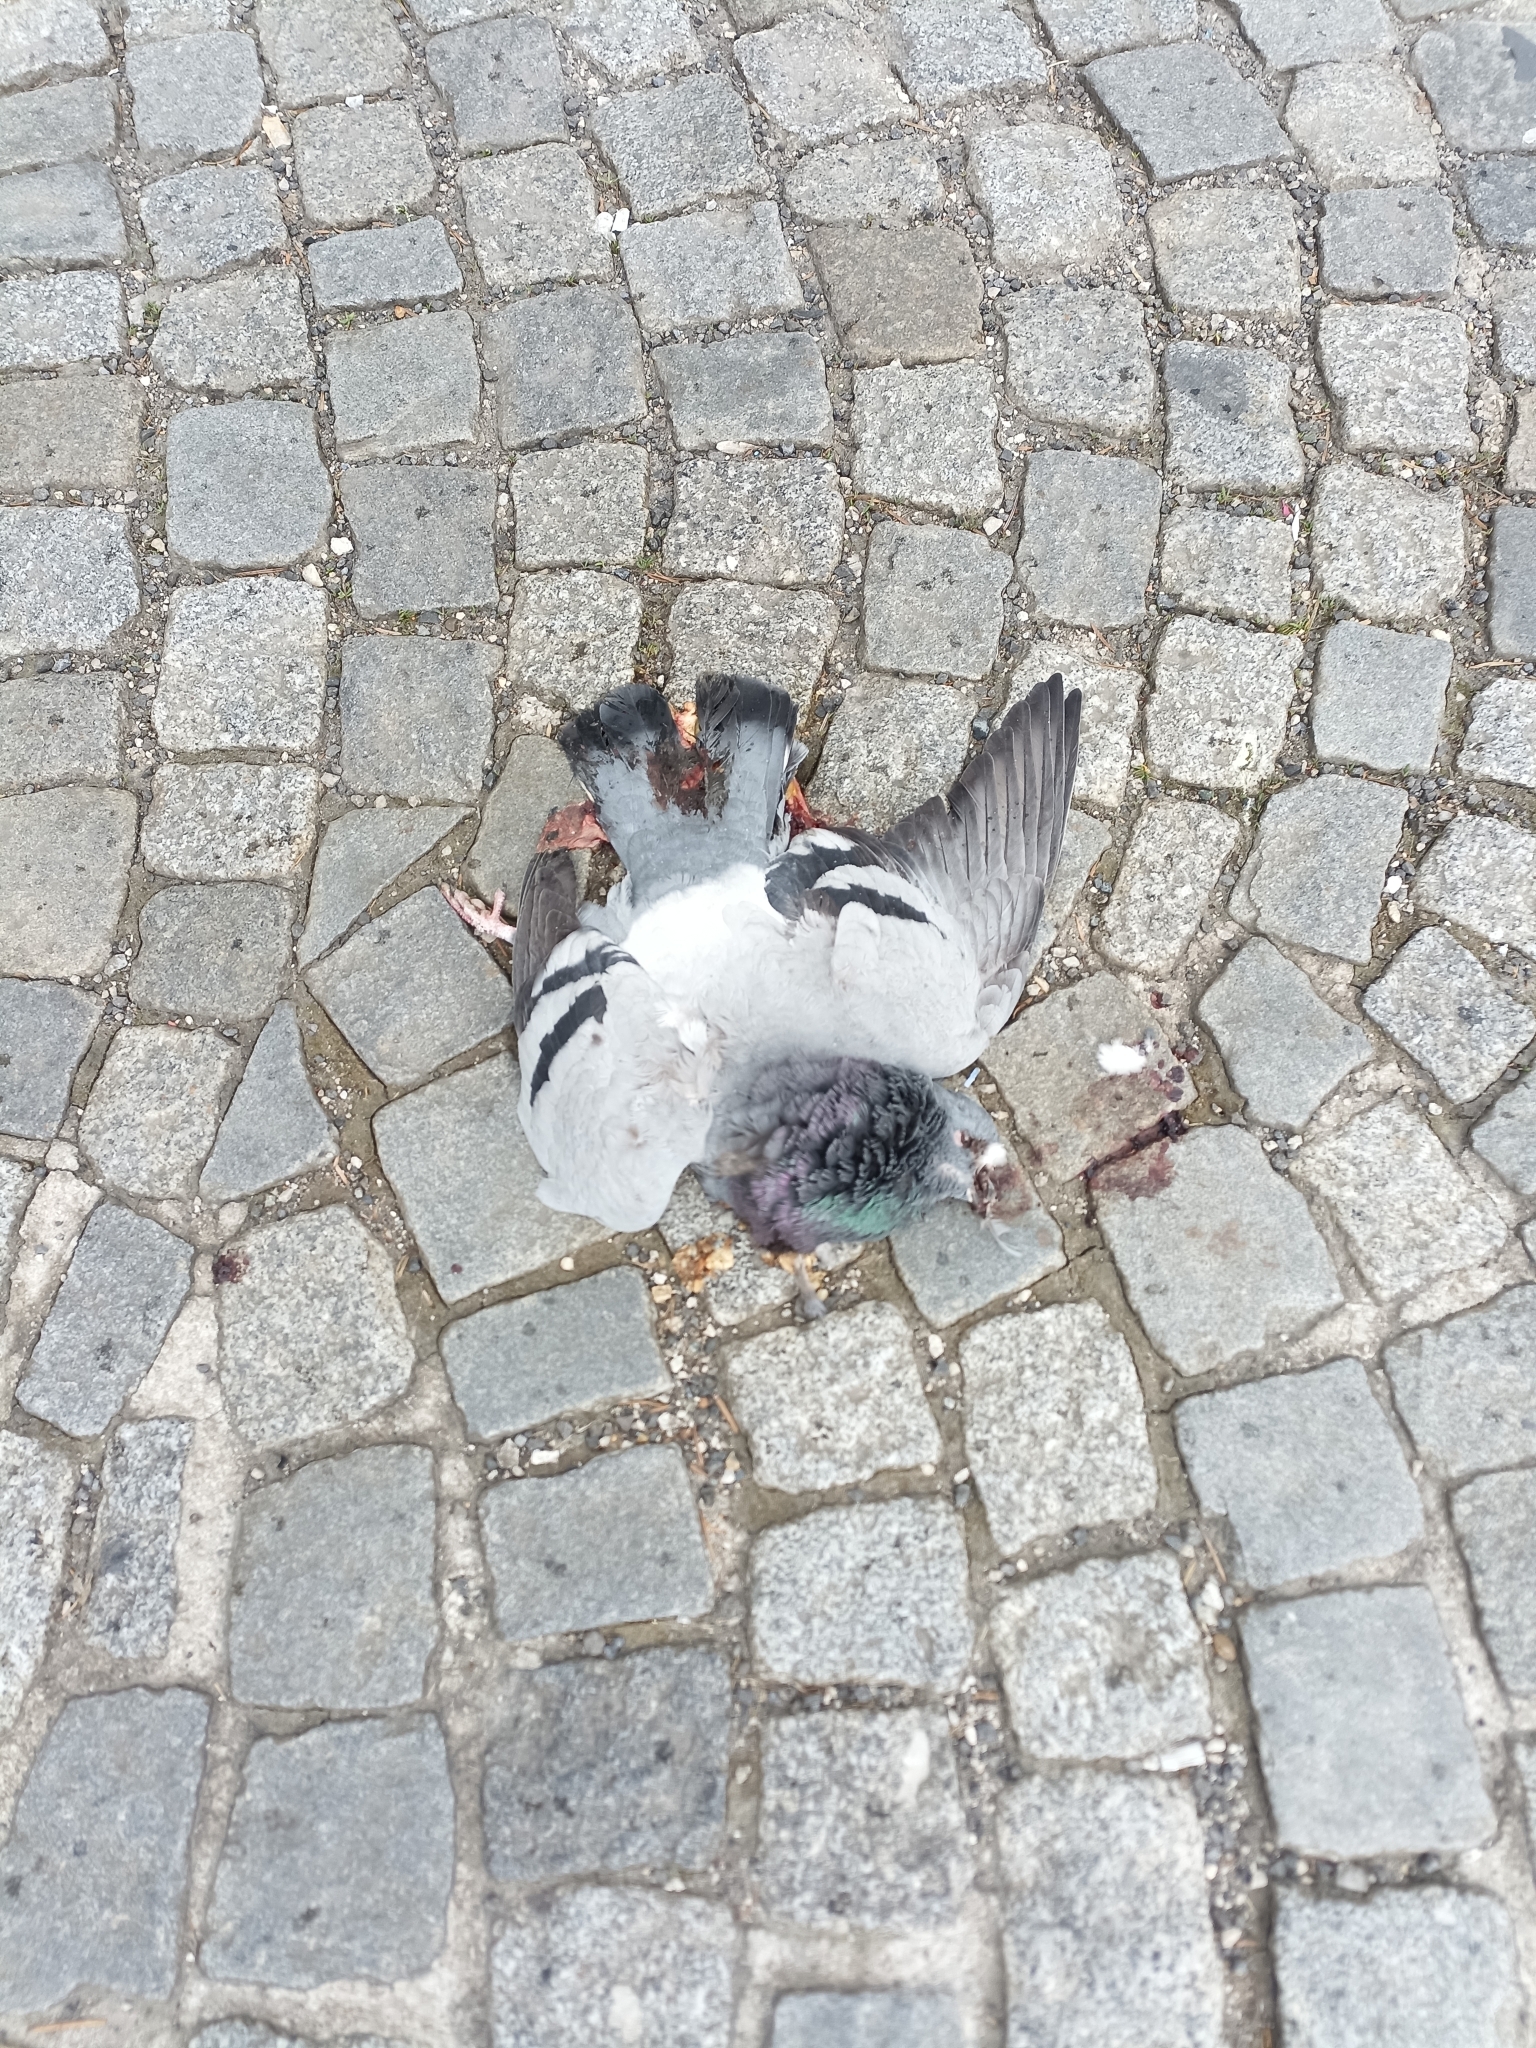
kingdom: Animalia
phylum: Chordata
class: Aves
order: Columbiformes
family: Columbidae
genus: Columba
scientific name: Columba livia
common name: Rock pigeon
